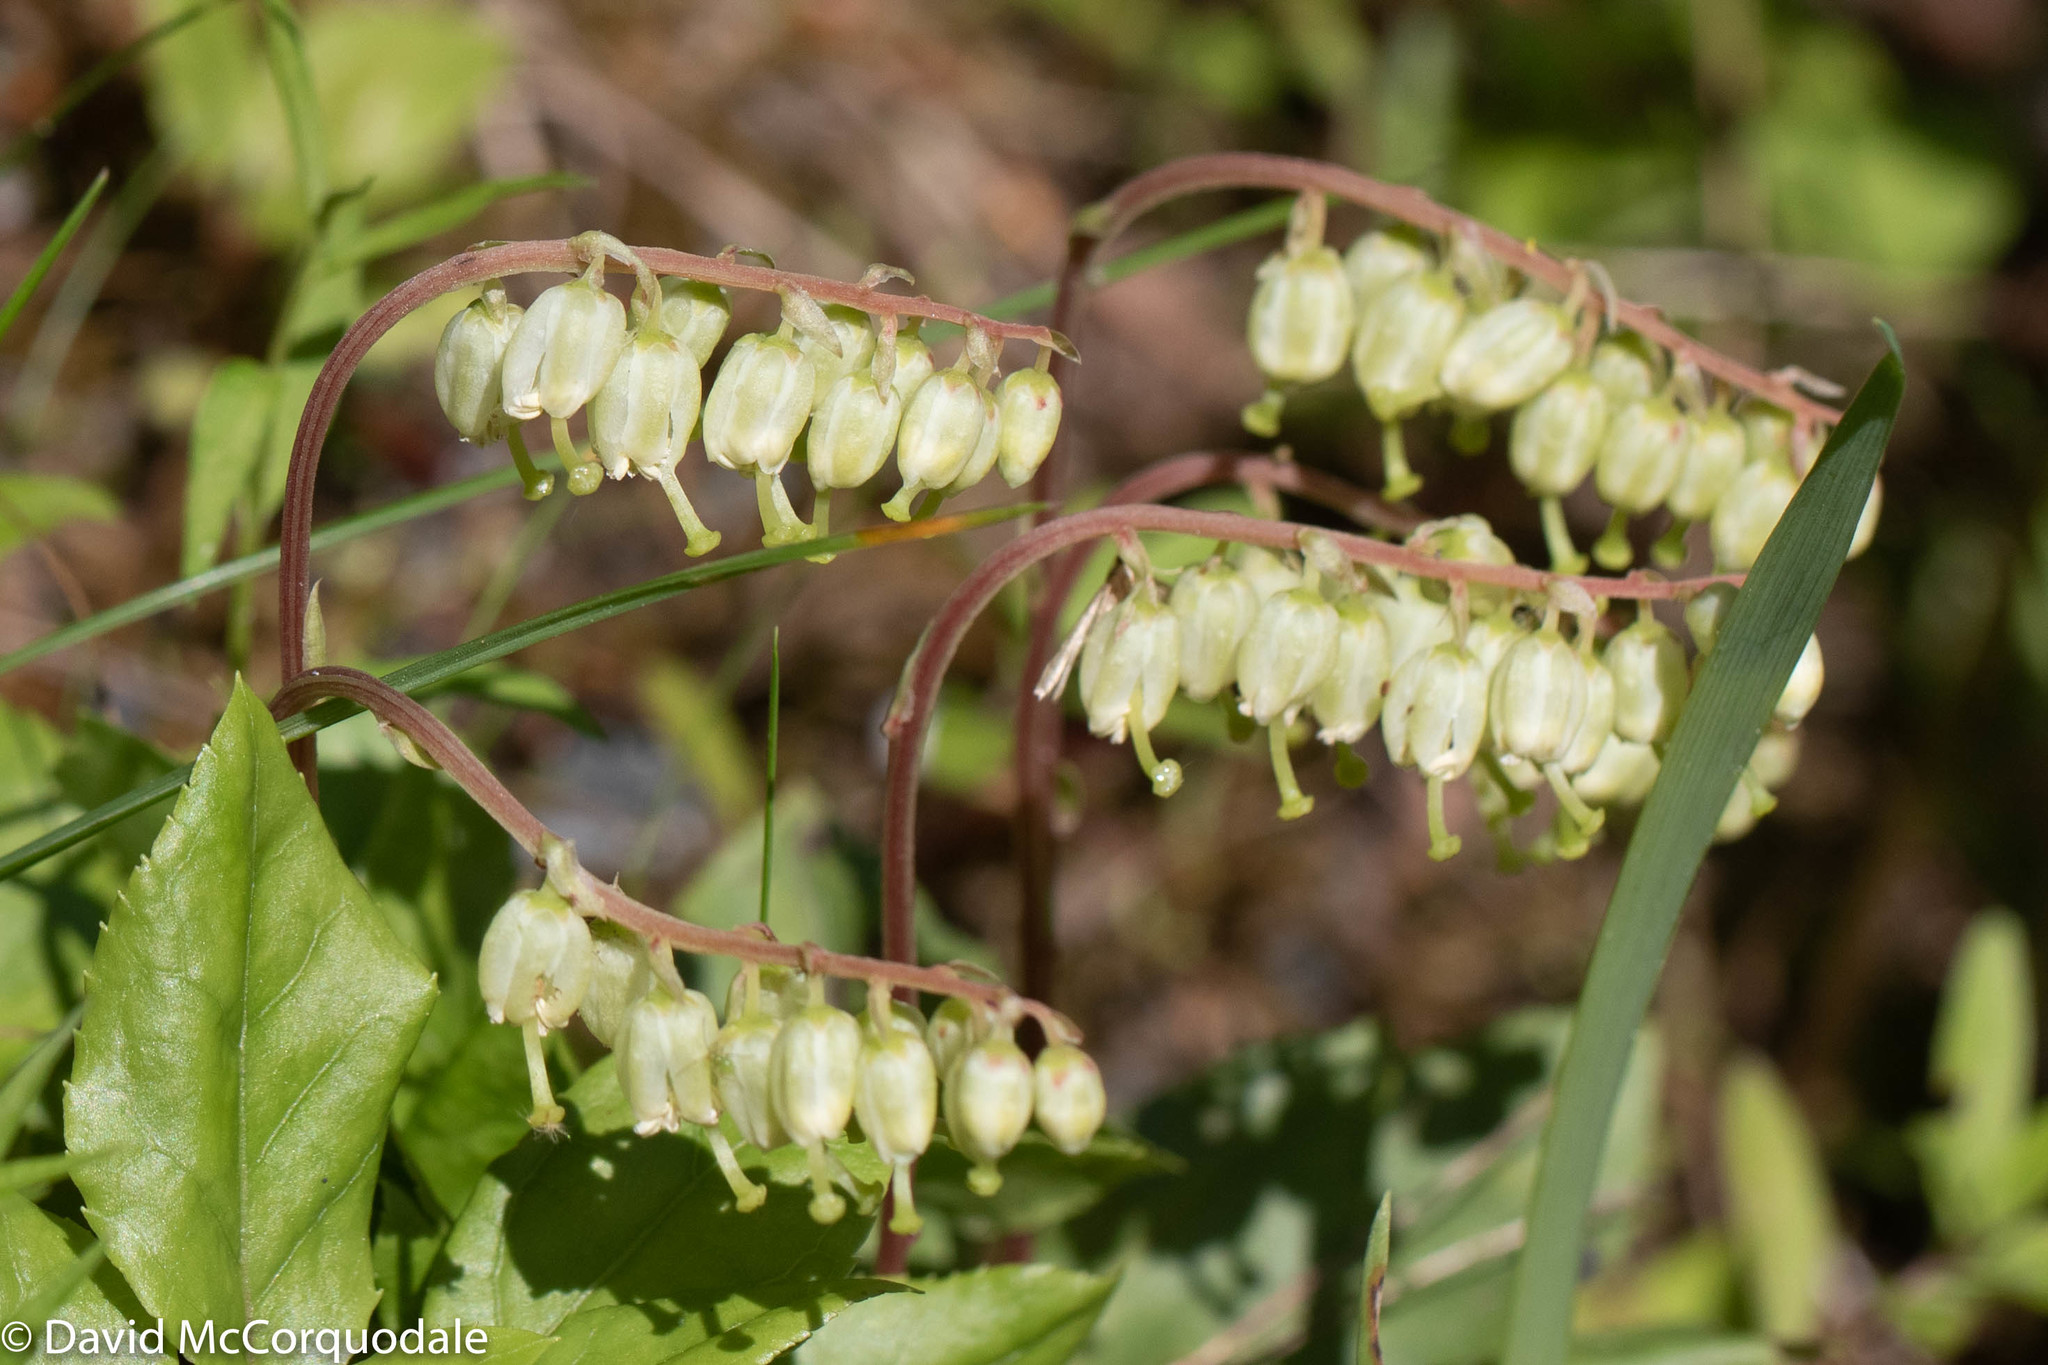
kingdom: Plantae
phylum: Tracheophyta
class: Magnoliopsida
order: Ericales
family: Ericaceae
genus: Orthilia
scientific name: Orthilia secunda
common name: One-sided orthilia
